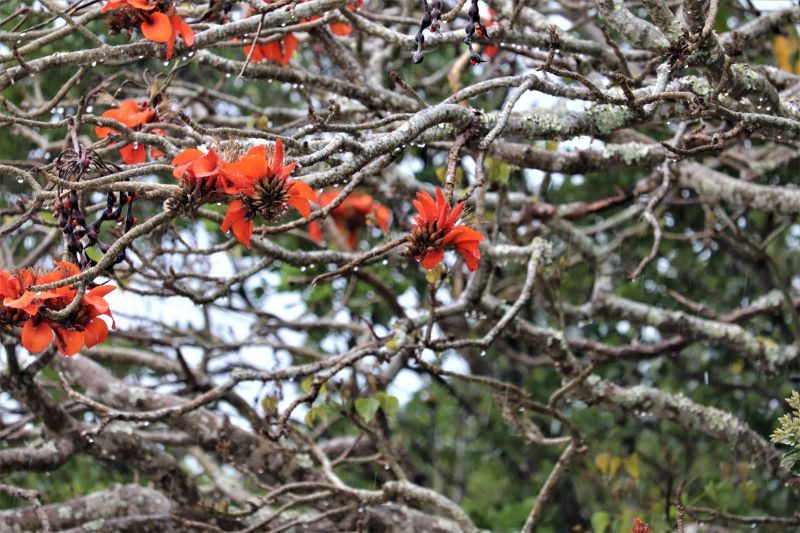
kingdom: Plantae
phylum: Tracheophyta
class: Magnoliopsida
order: Fabales
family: Fabaceae
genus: Erythrina
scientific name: Erythrina caffra
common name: Coast coral tree
